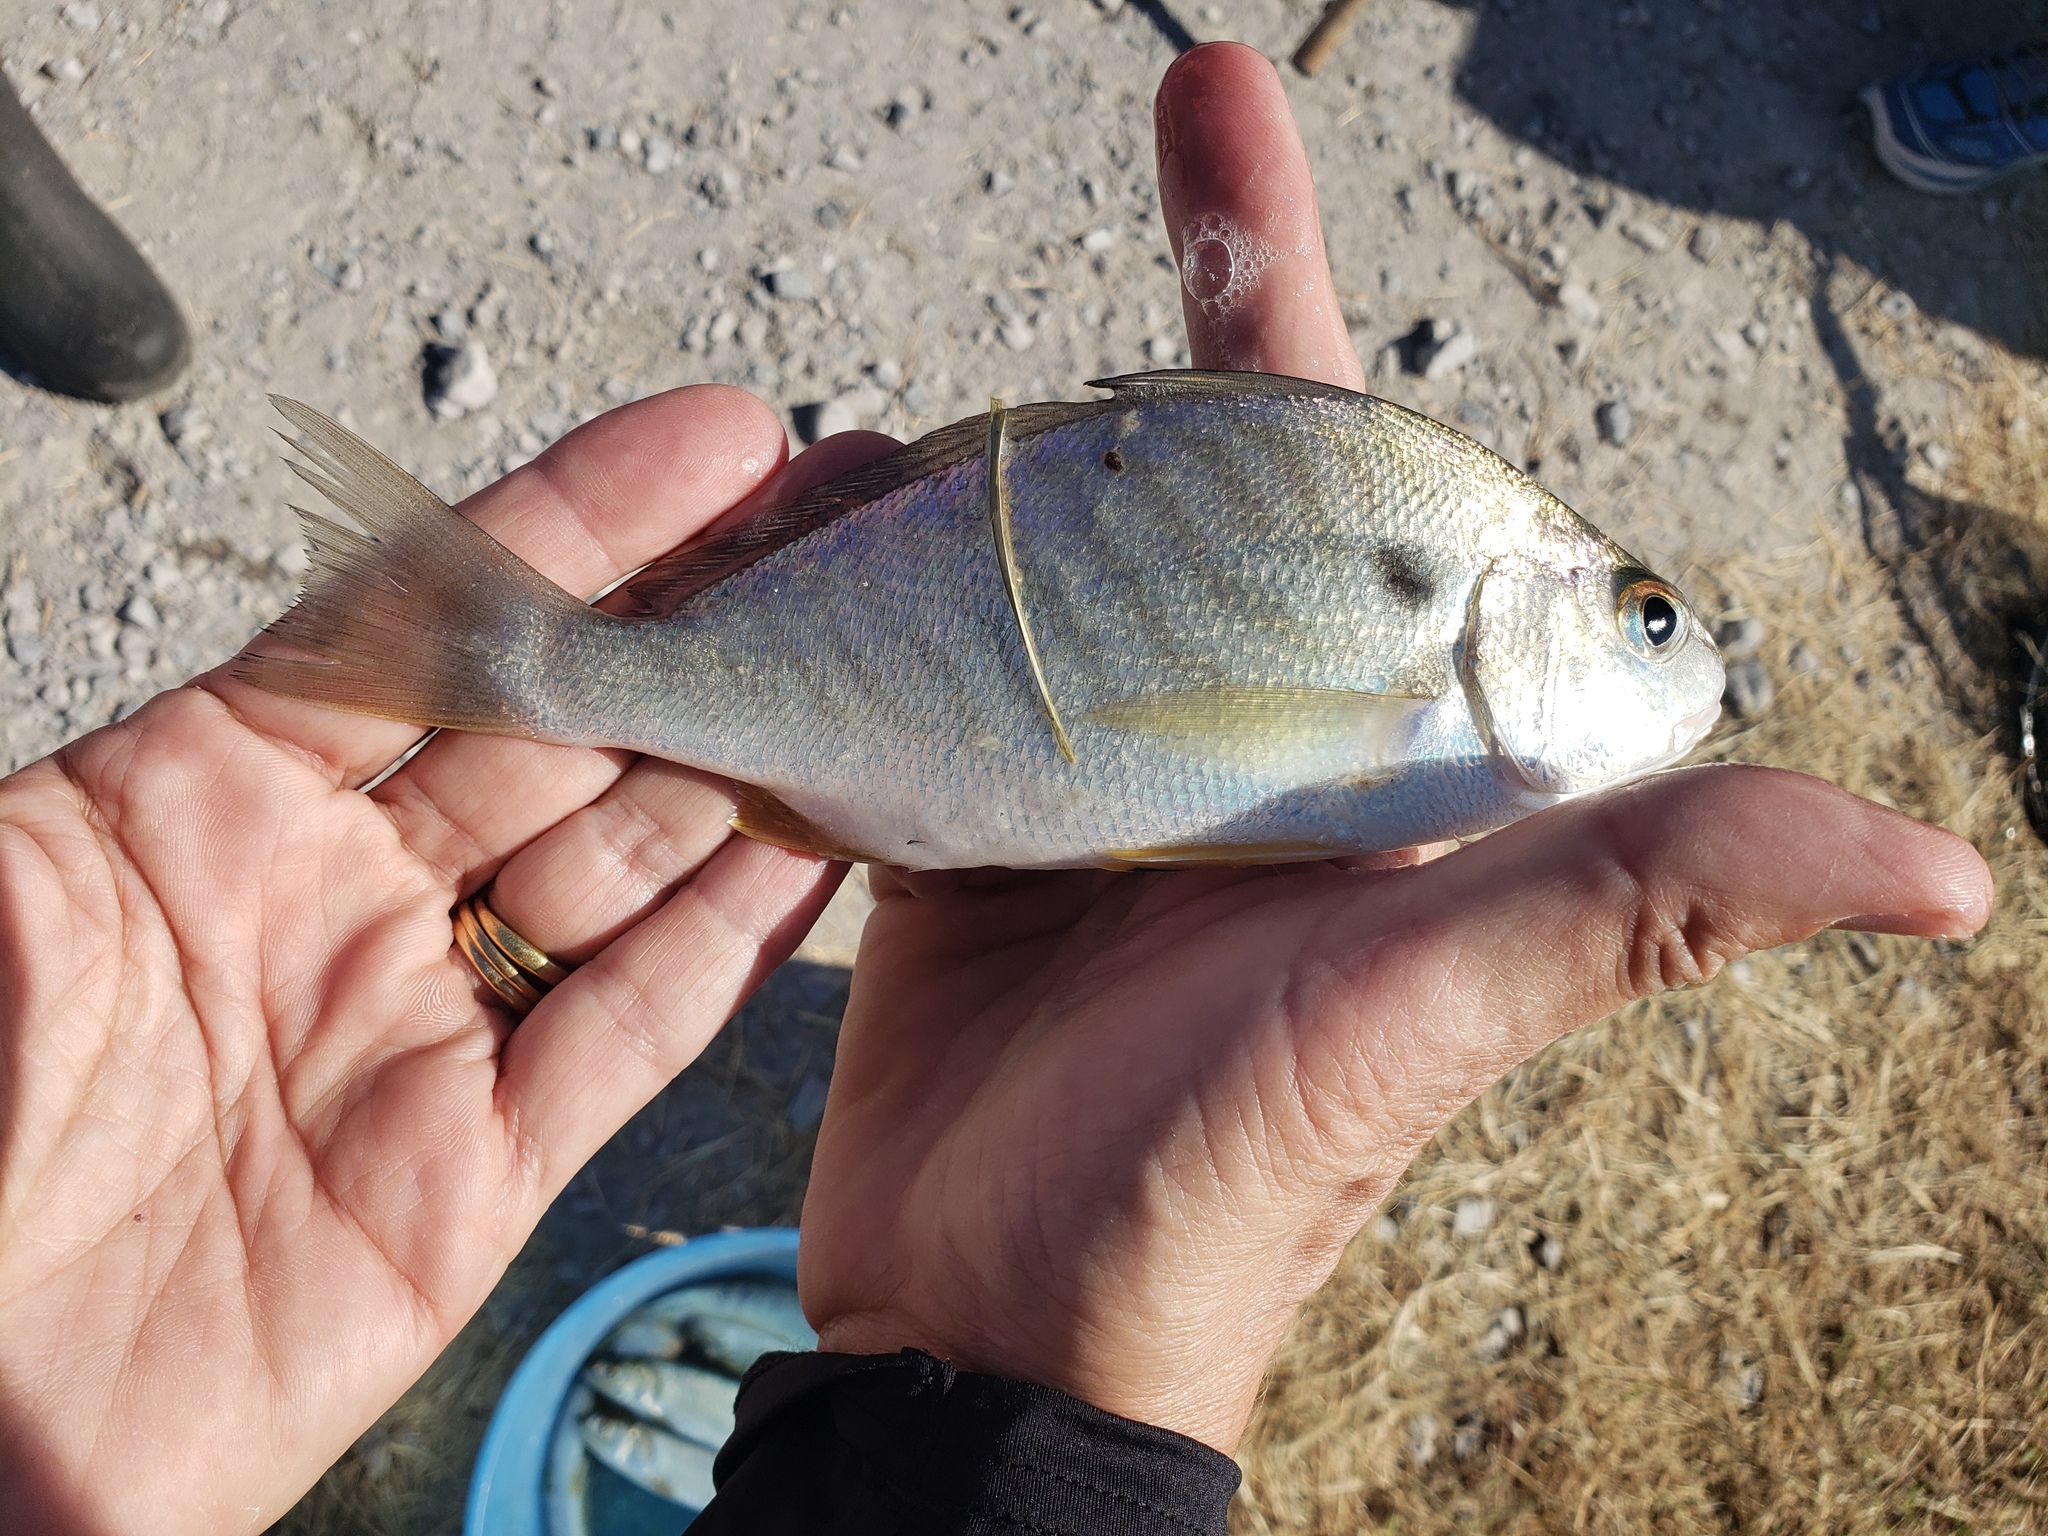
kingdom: Animalia
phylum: Chordata
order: Perciformes
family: Sciaenidae
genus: Leiostomus
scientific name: Leiostomus xanthurus
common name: Spot
